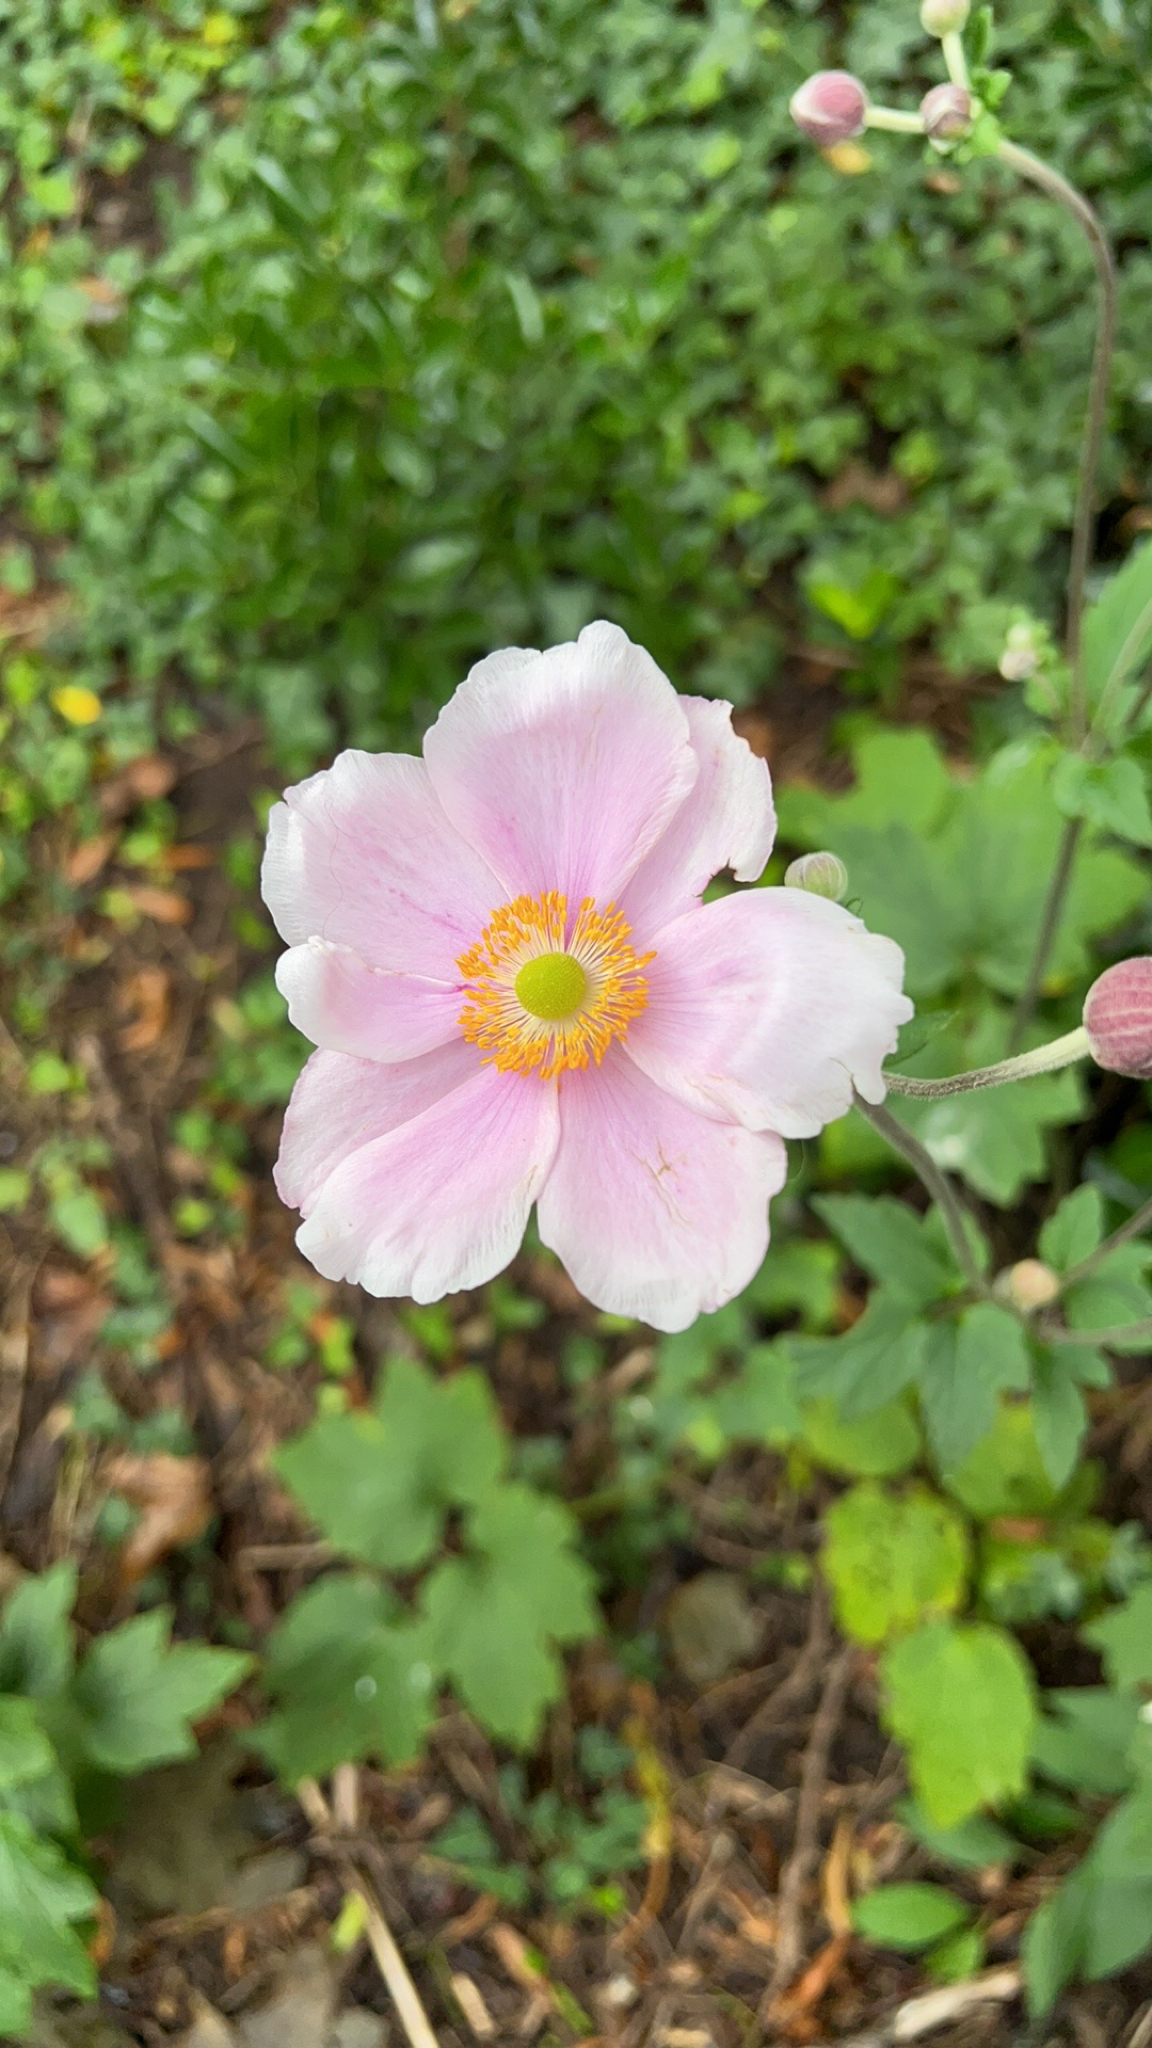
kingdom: Plantae
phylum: Tracheophyta
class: Magnoliopsida
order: Ranunculales
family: Ranunculaceae
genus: Eriocapitella
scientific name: Eriocapitella hupehensis
